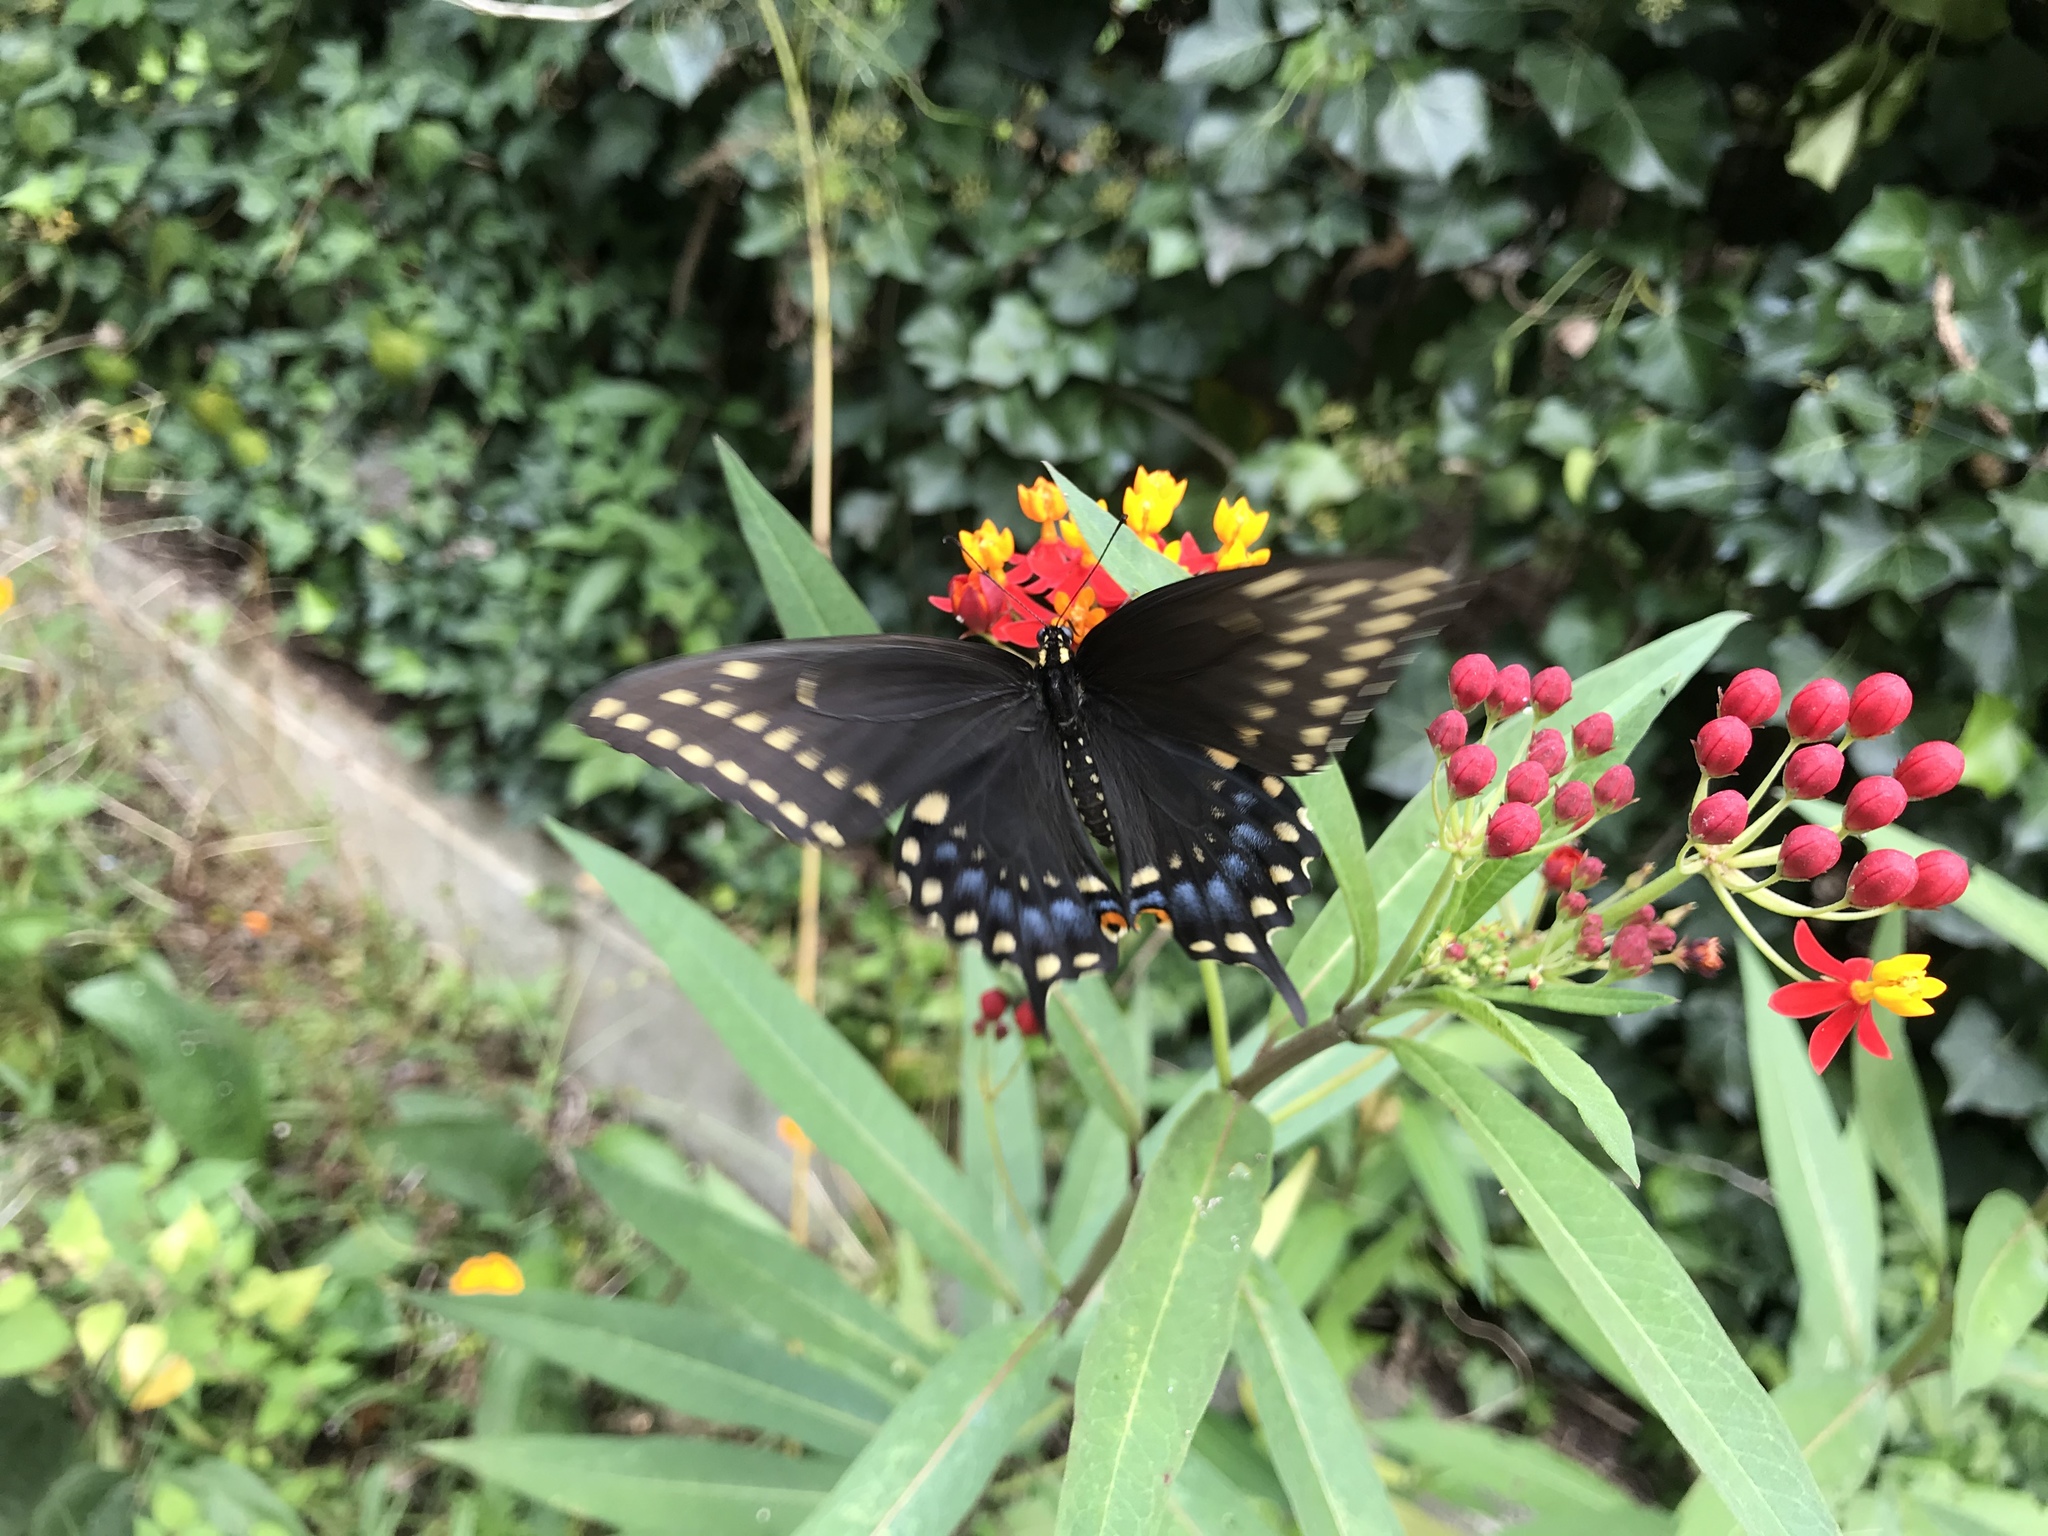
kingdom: Animalia
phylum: Arthropoda
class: Insecta
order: Lepidoptera
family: Papilionidae
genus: Papilio
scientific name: Papilio polyxenes
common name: Black swallowtail
